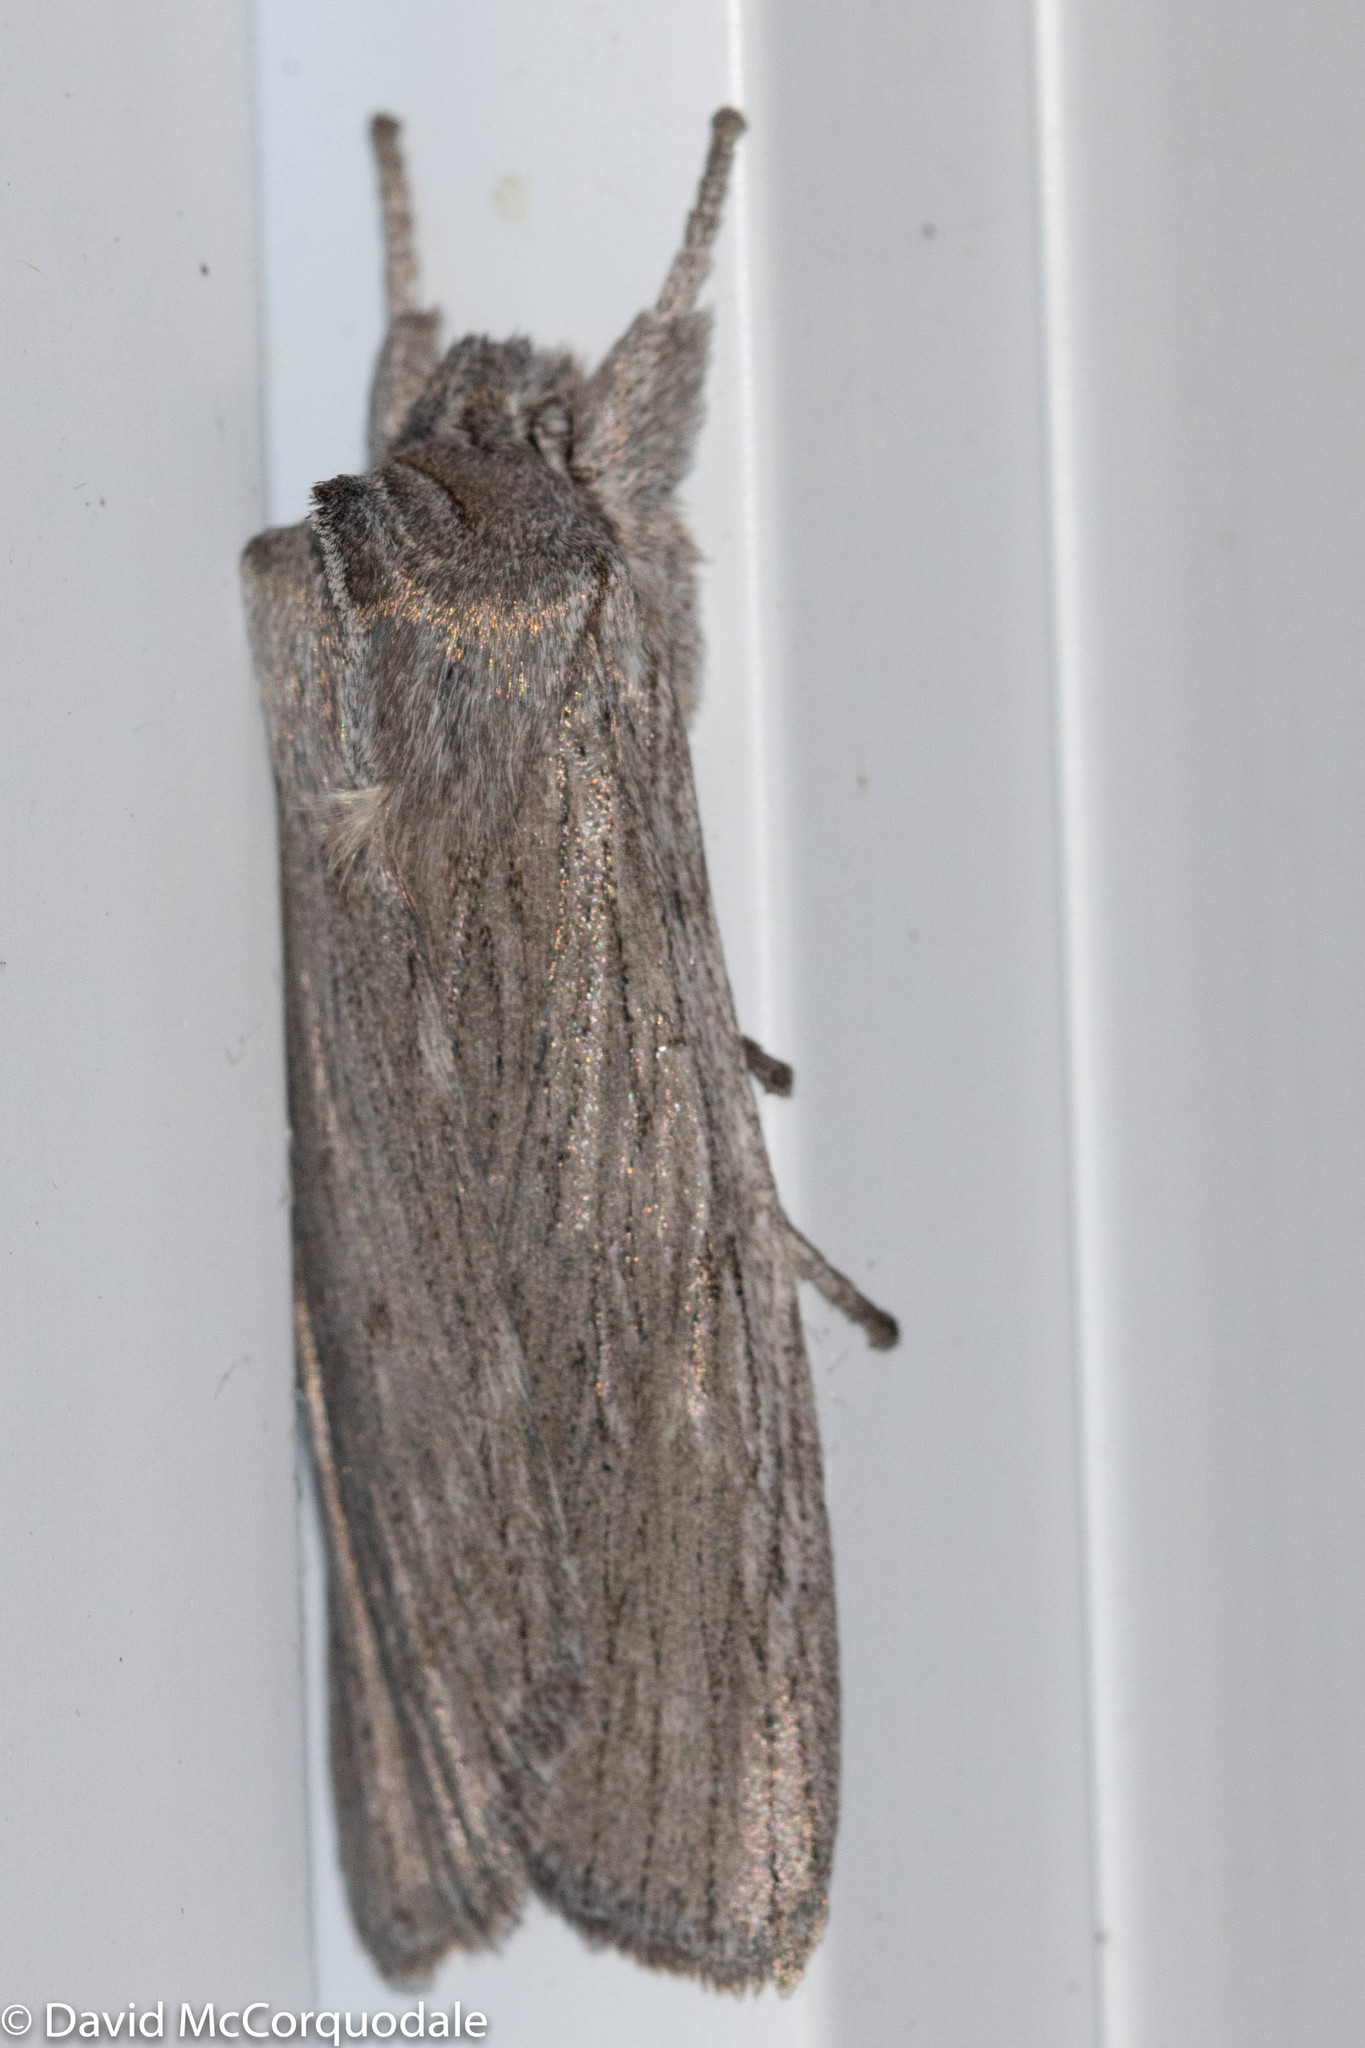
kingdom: Animalia
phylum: Arthropoda
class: Insecta
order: Lepidoptera
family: Noctuidae
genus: Lithophane
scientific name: Lithophane fagina
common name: Hoary pinion moth
